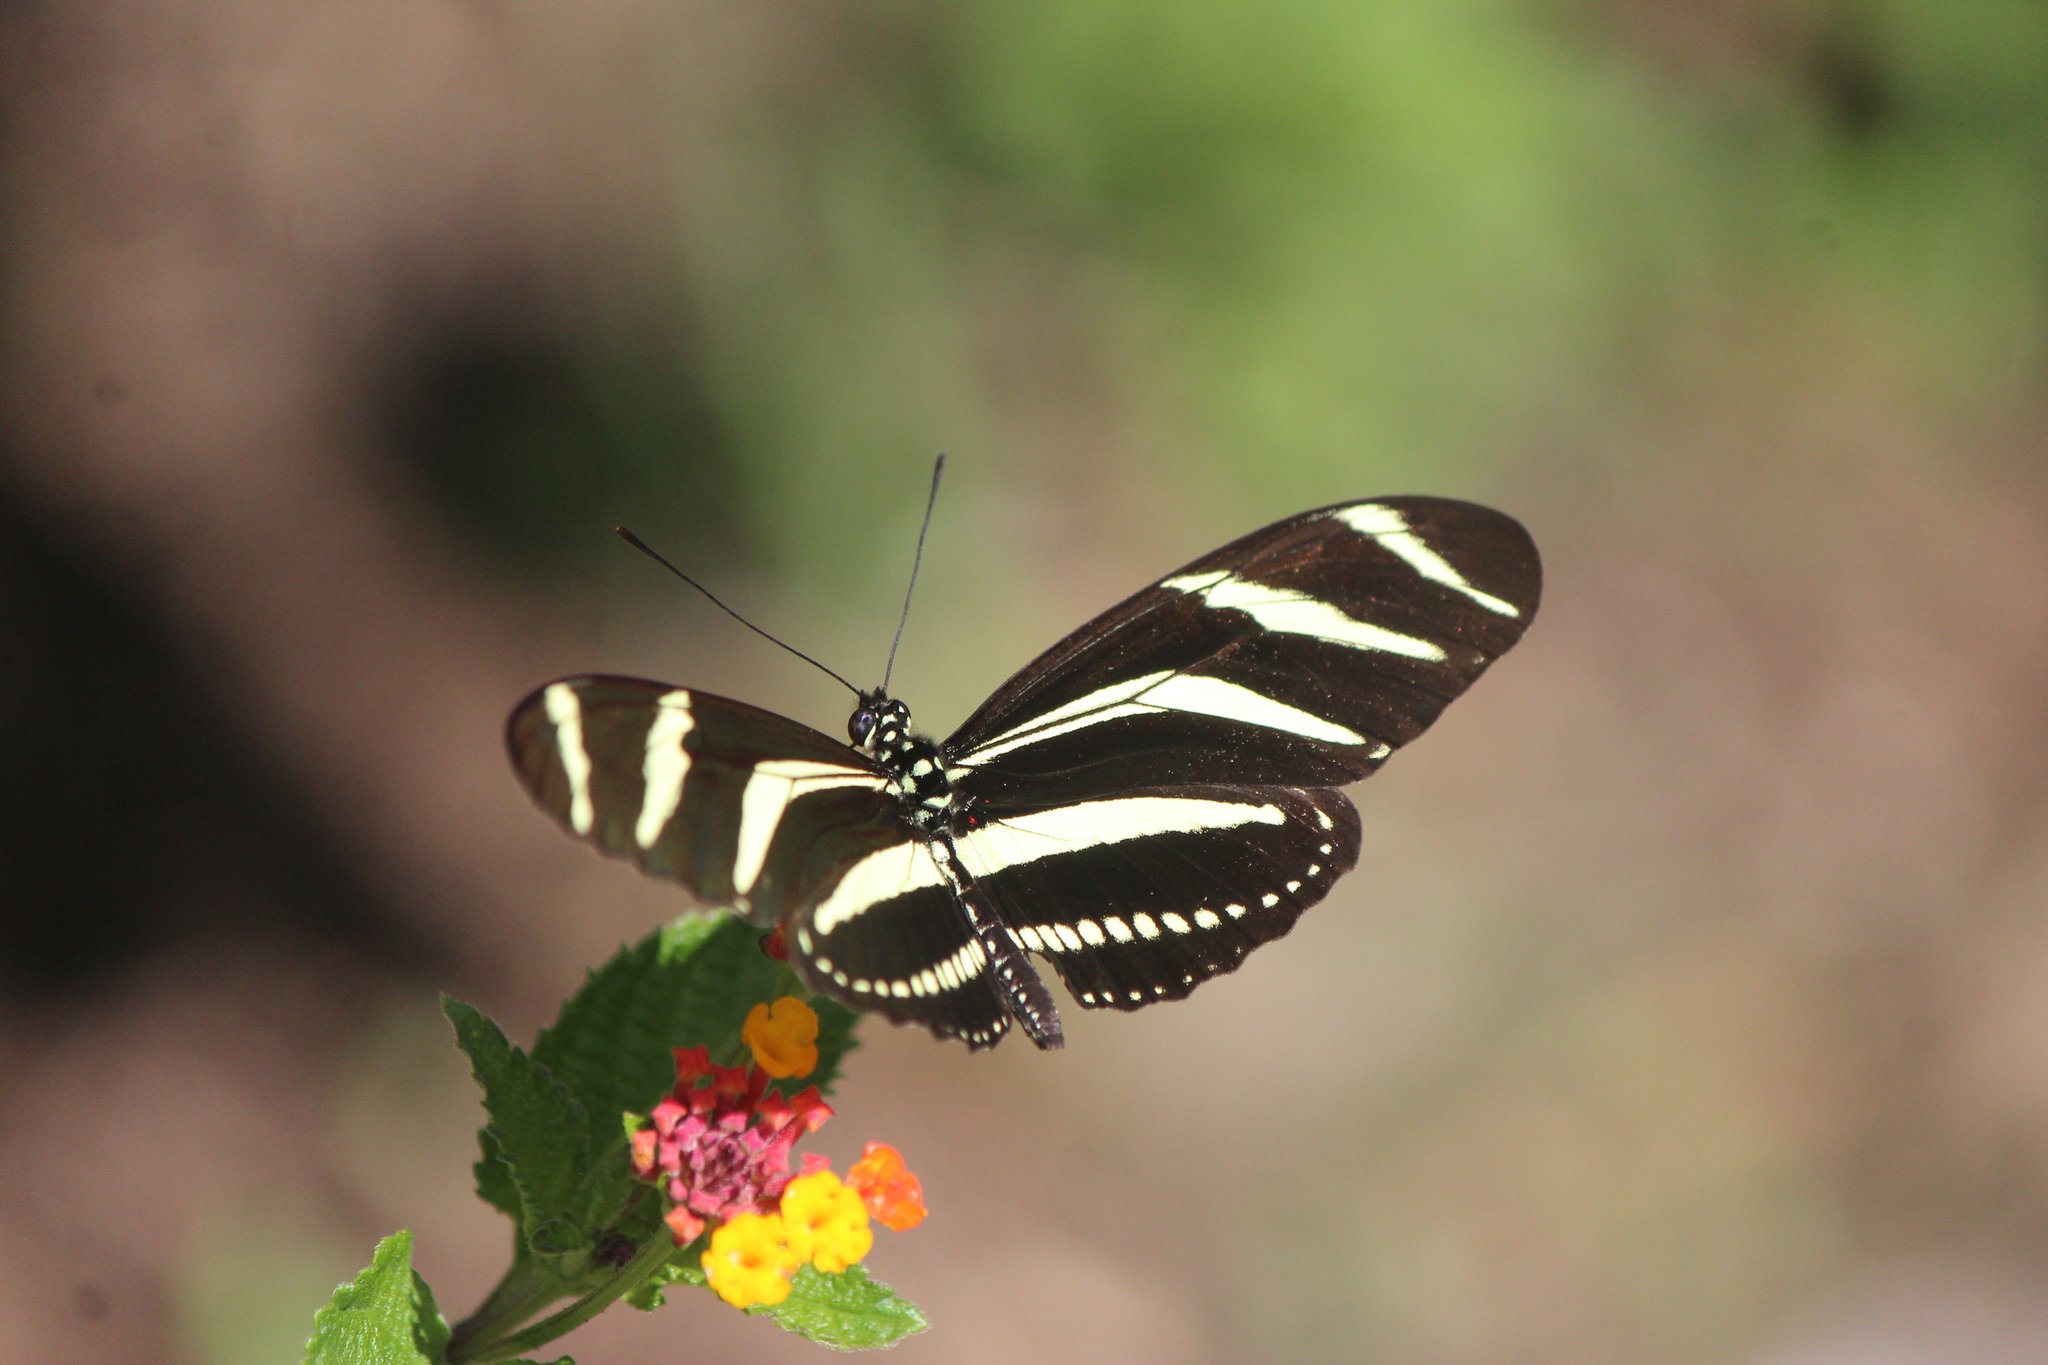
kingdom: Animalia
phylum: Arthropoda
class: Insecta
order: Lepidoptera
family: Nymphalidae
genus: Heliconius
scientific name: Heliconius charithonia
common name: Zebra long wing
